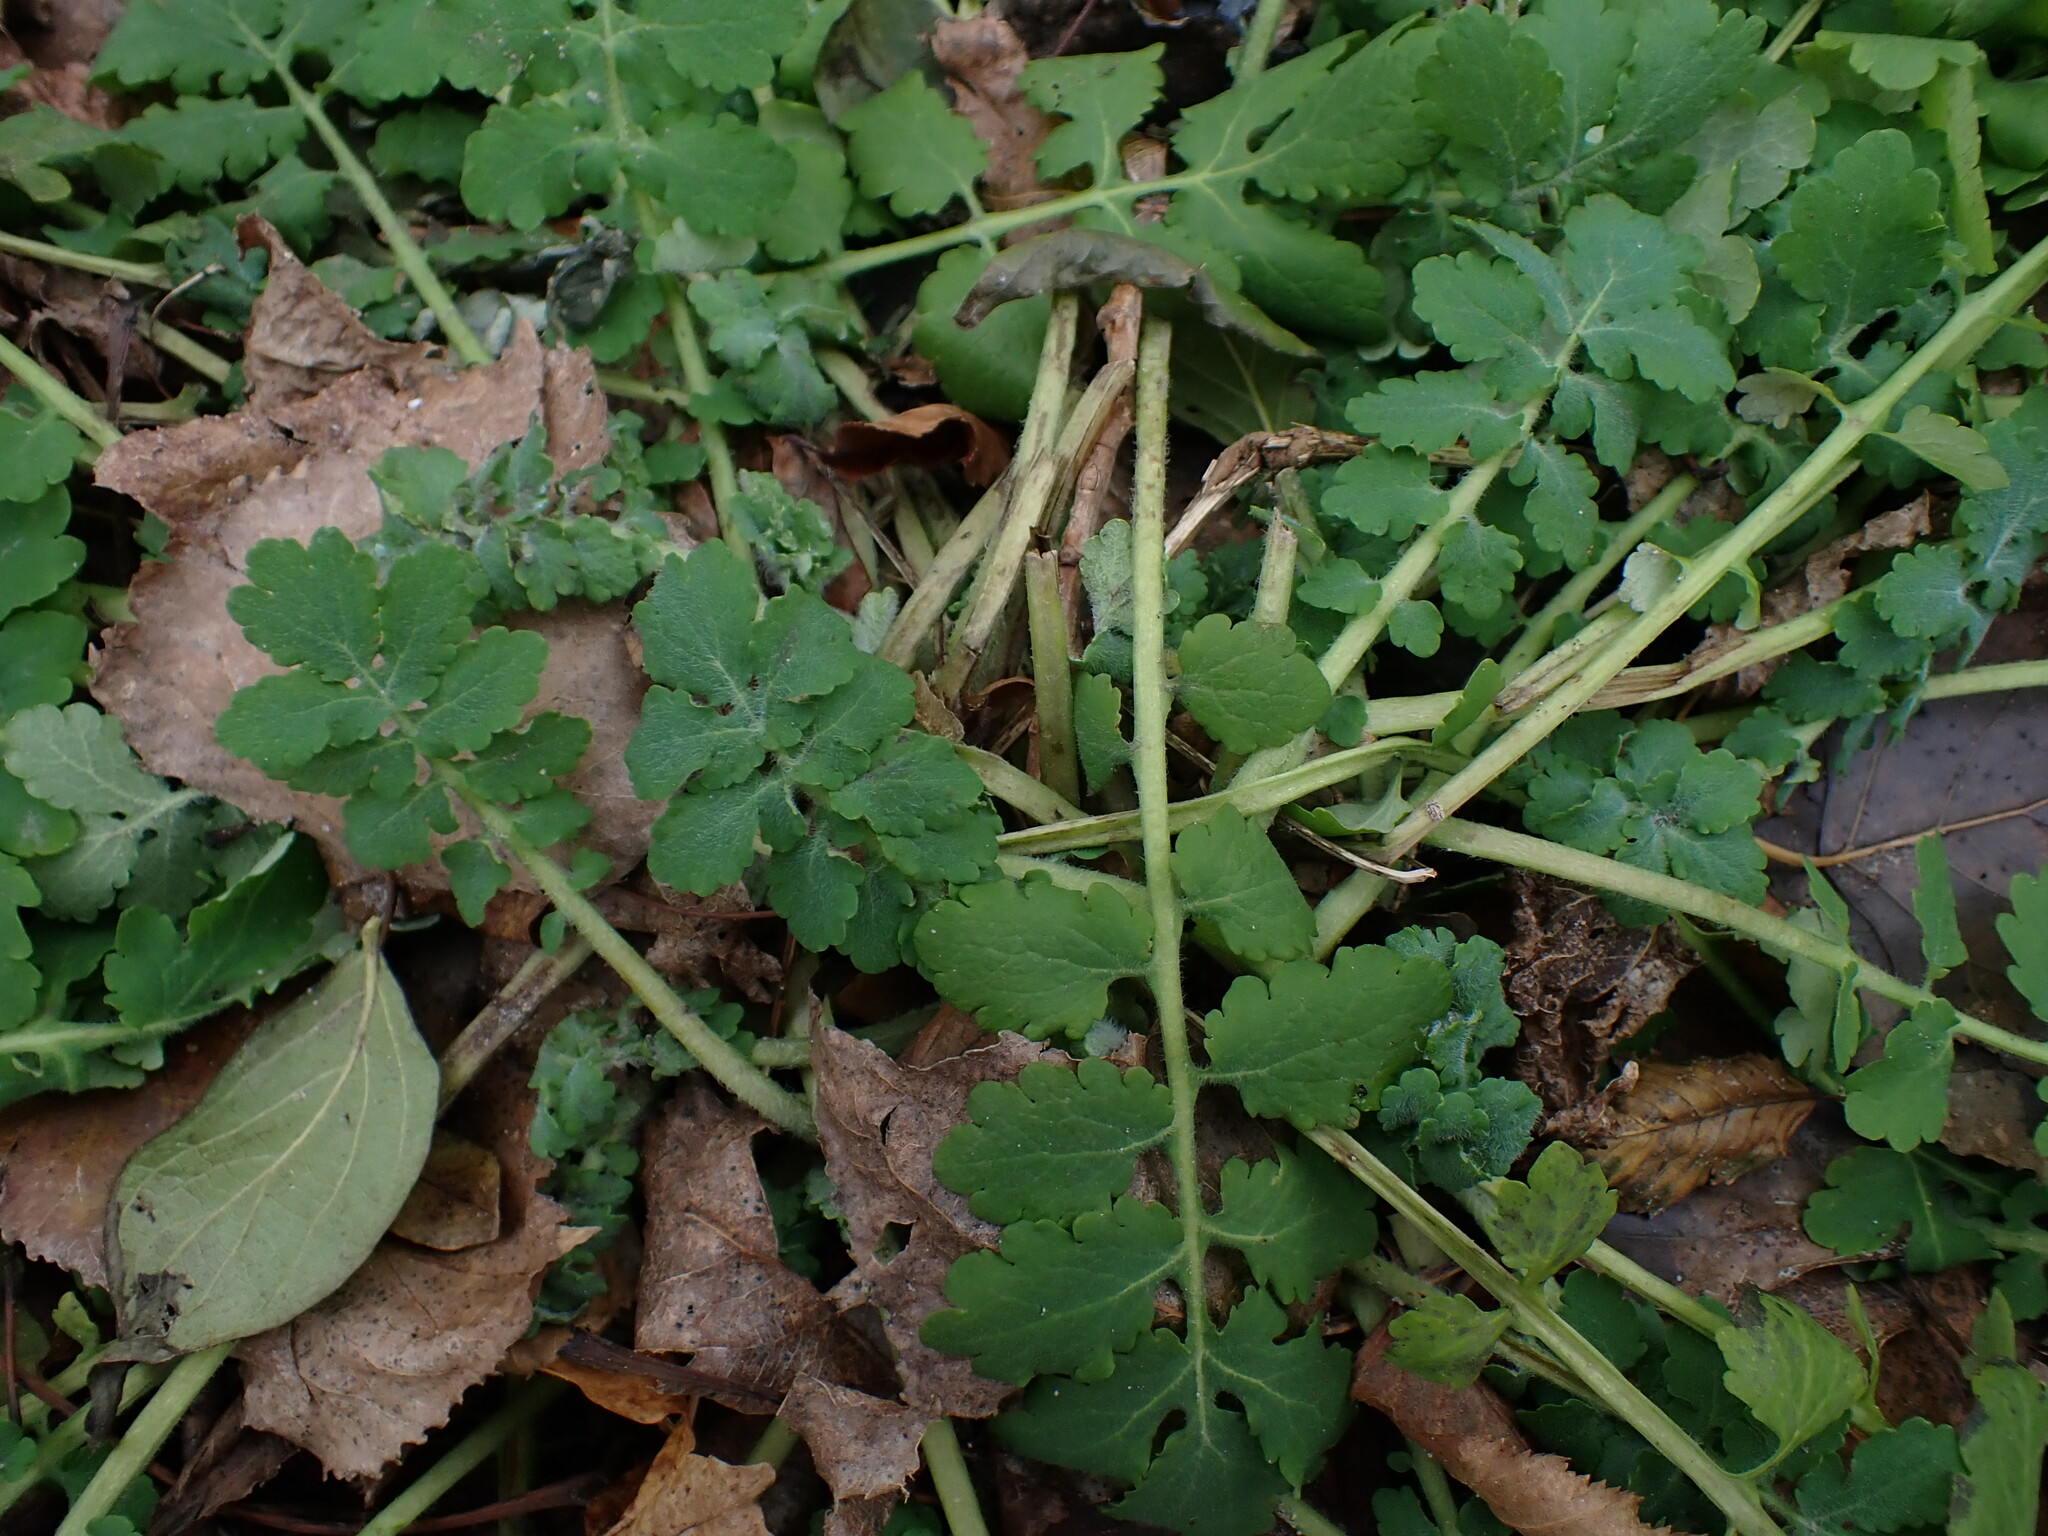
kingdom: Plantae
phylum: Tracheophyta
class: Magnoliopsida
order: Ranunculales
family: Papaveraceae
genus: Chelidonium
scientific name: Chelidonium majus
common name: Greater celandine
